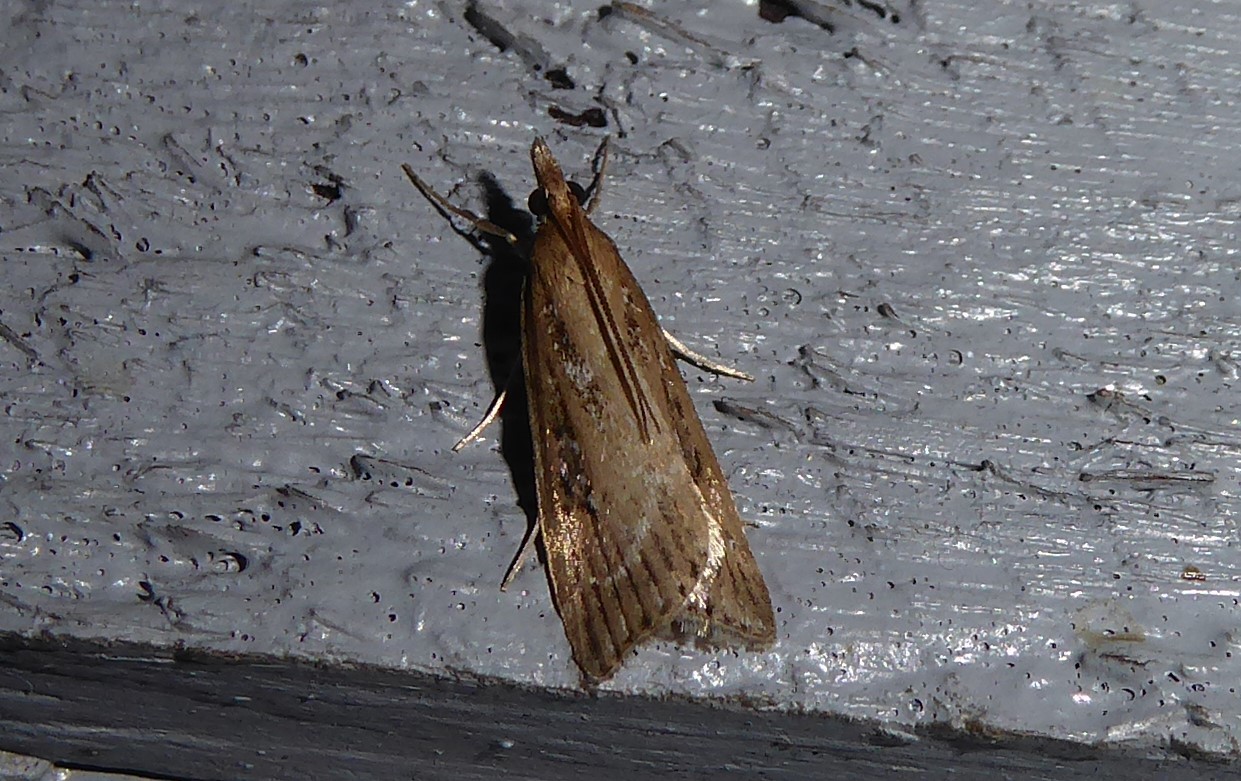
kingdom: Animalia
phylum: Arthropoda
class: Insecta
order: Lepidoptera
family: Crambidae
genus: Eudonia
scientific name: Eudonia octophora
